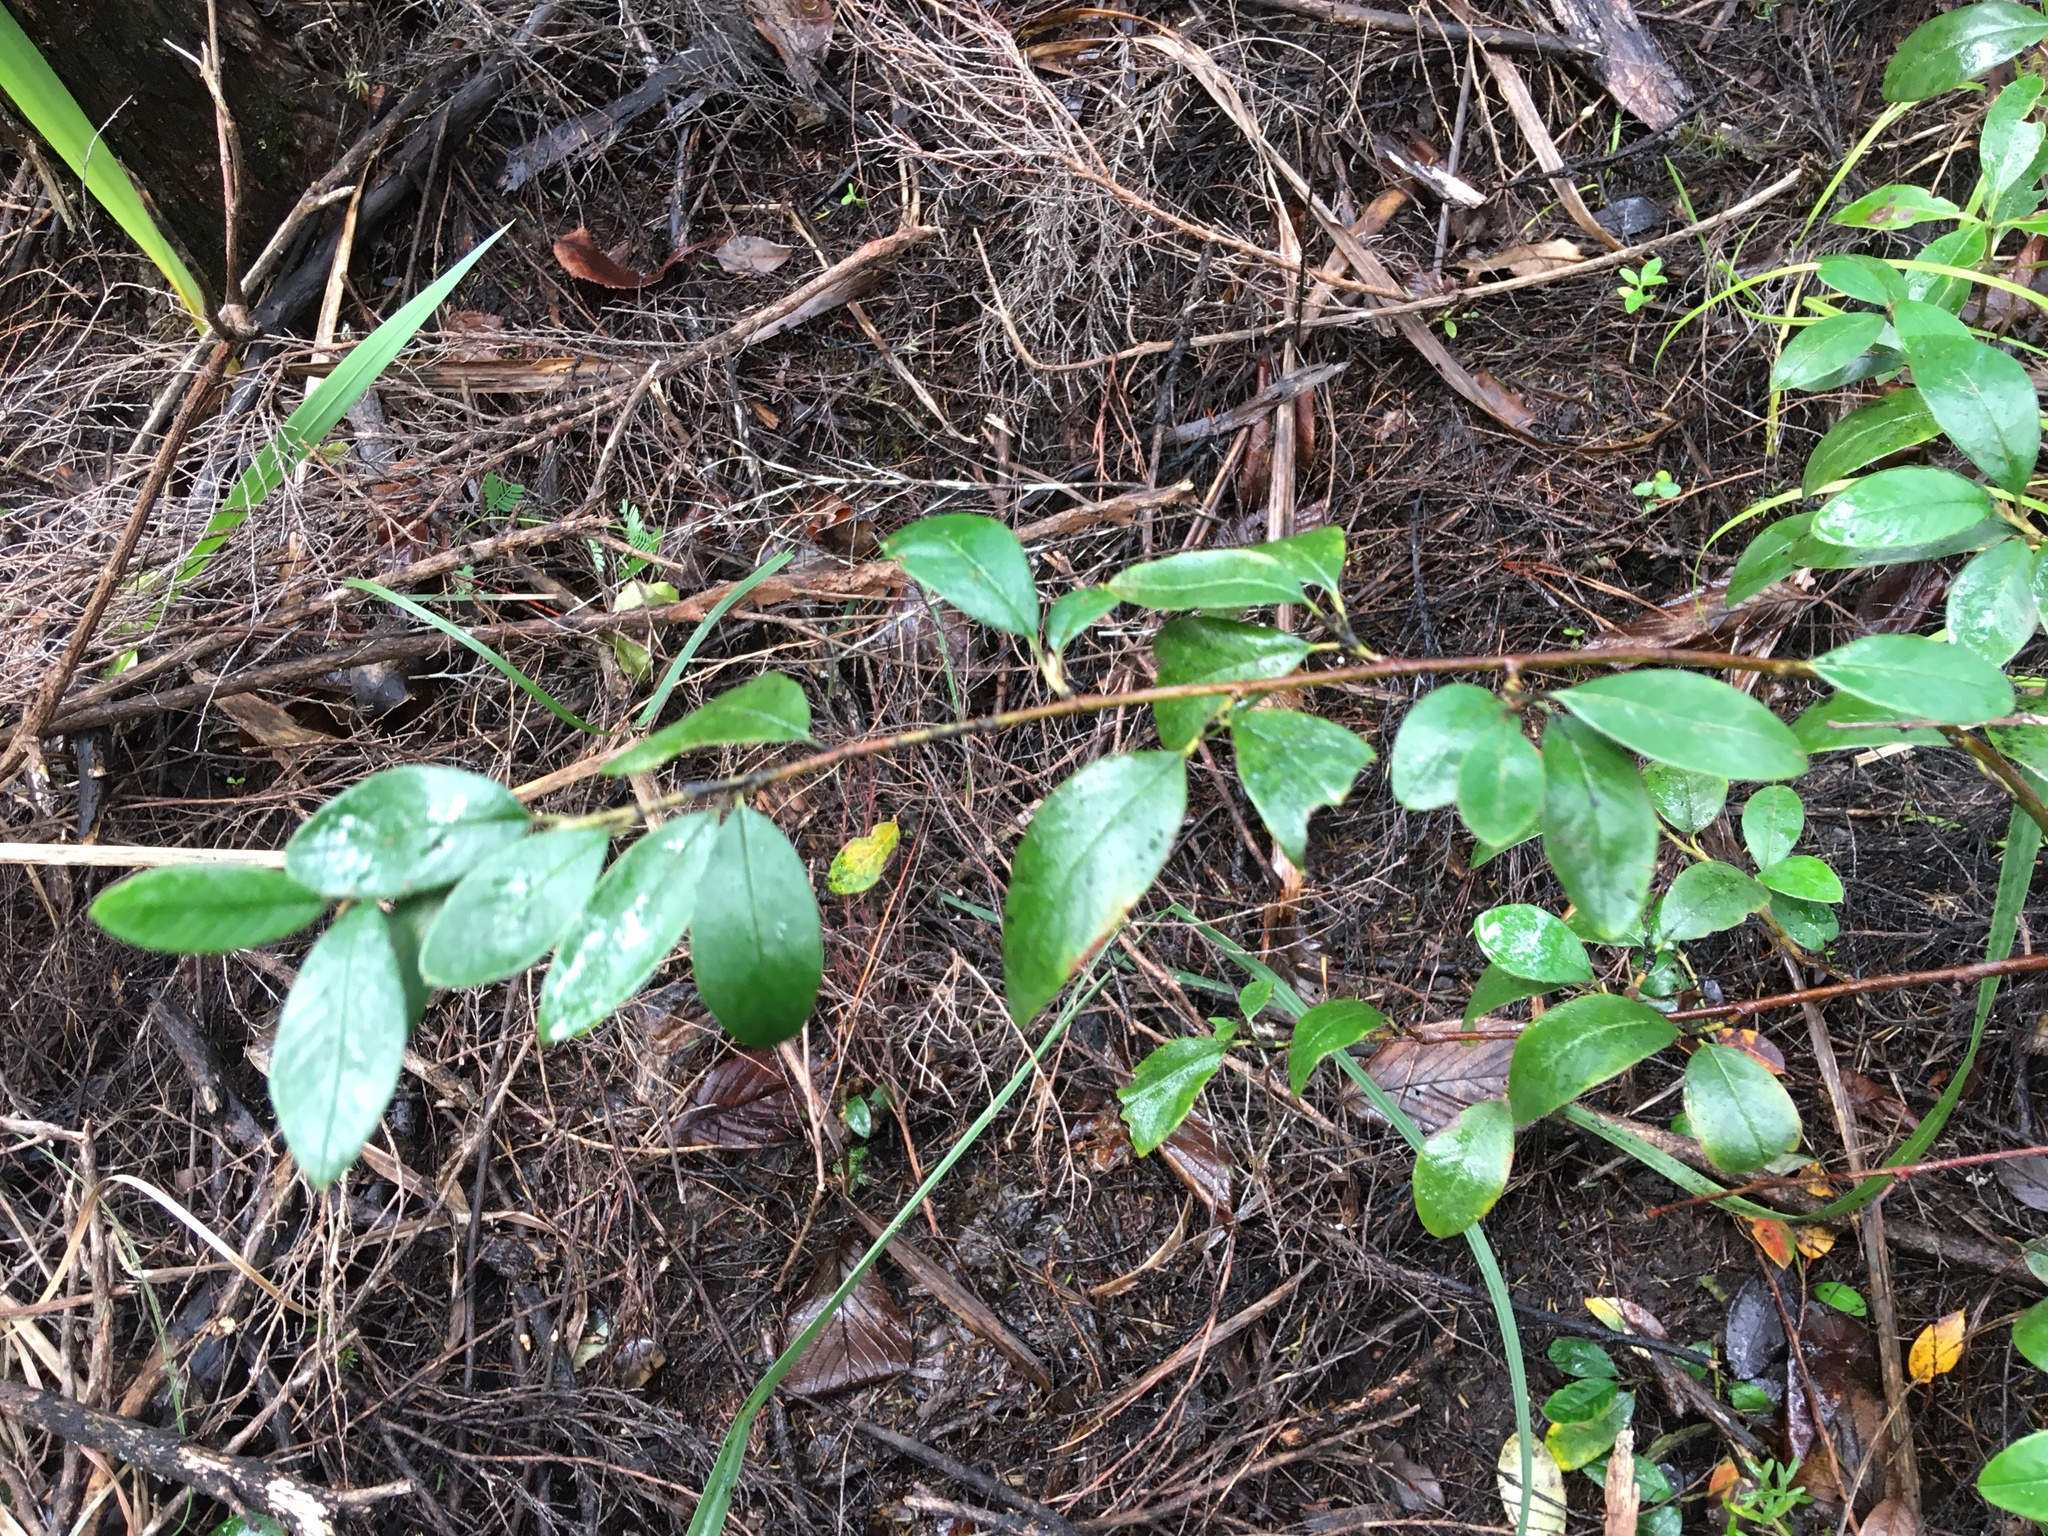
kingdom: Plantae
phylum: Tracheophyta
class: Magnoliopsida
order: Rosales
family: Rosaceae
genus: Cotoneaster
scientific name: Cotoneaster glaucophyllus
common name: Glaucous cotoneaster
